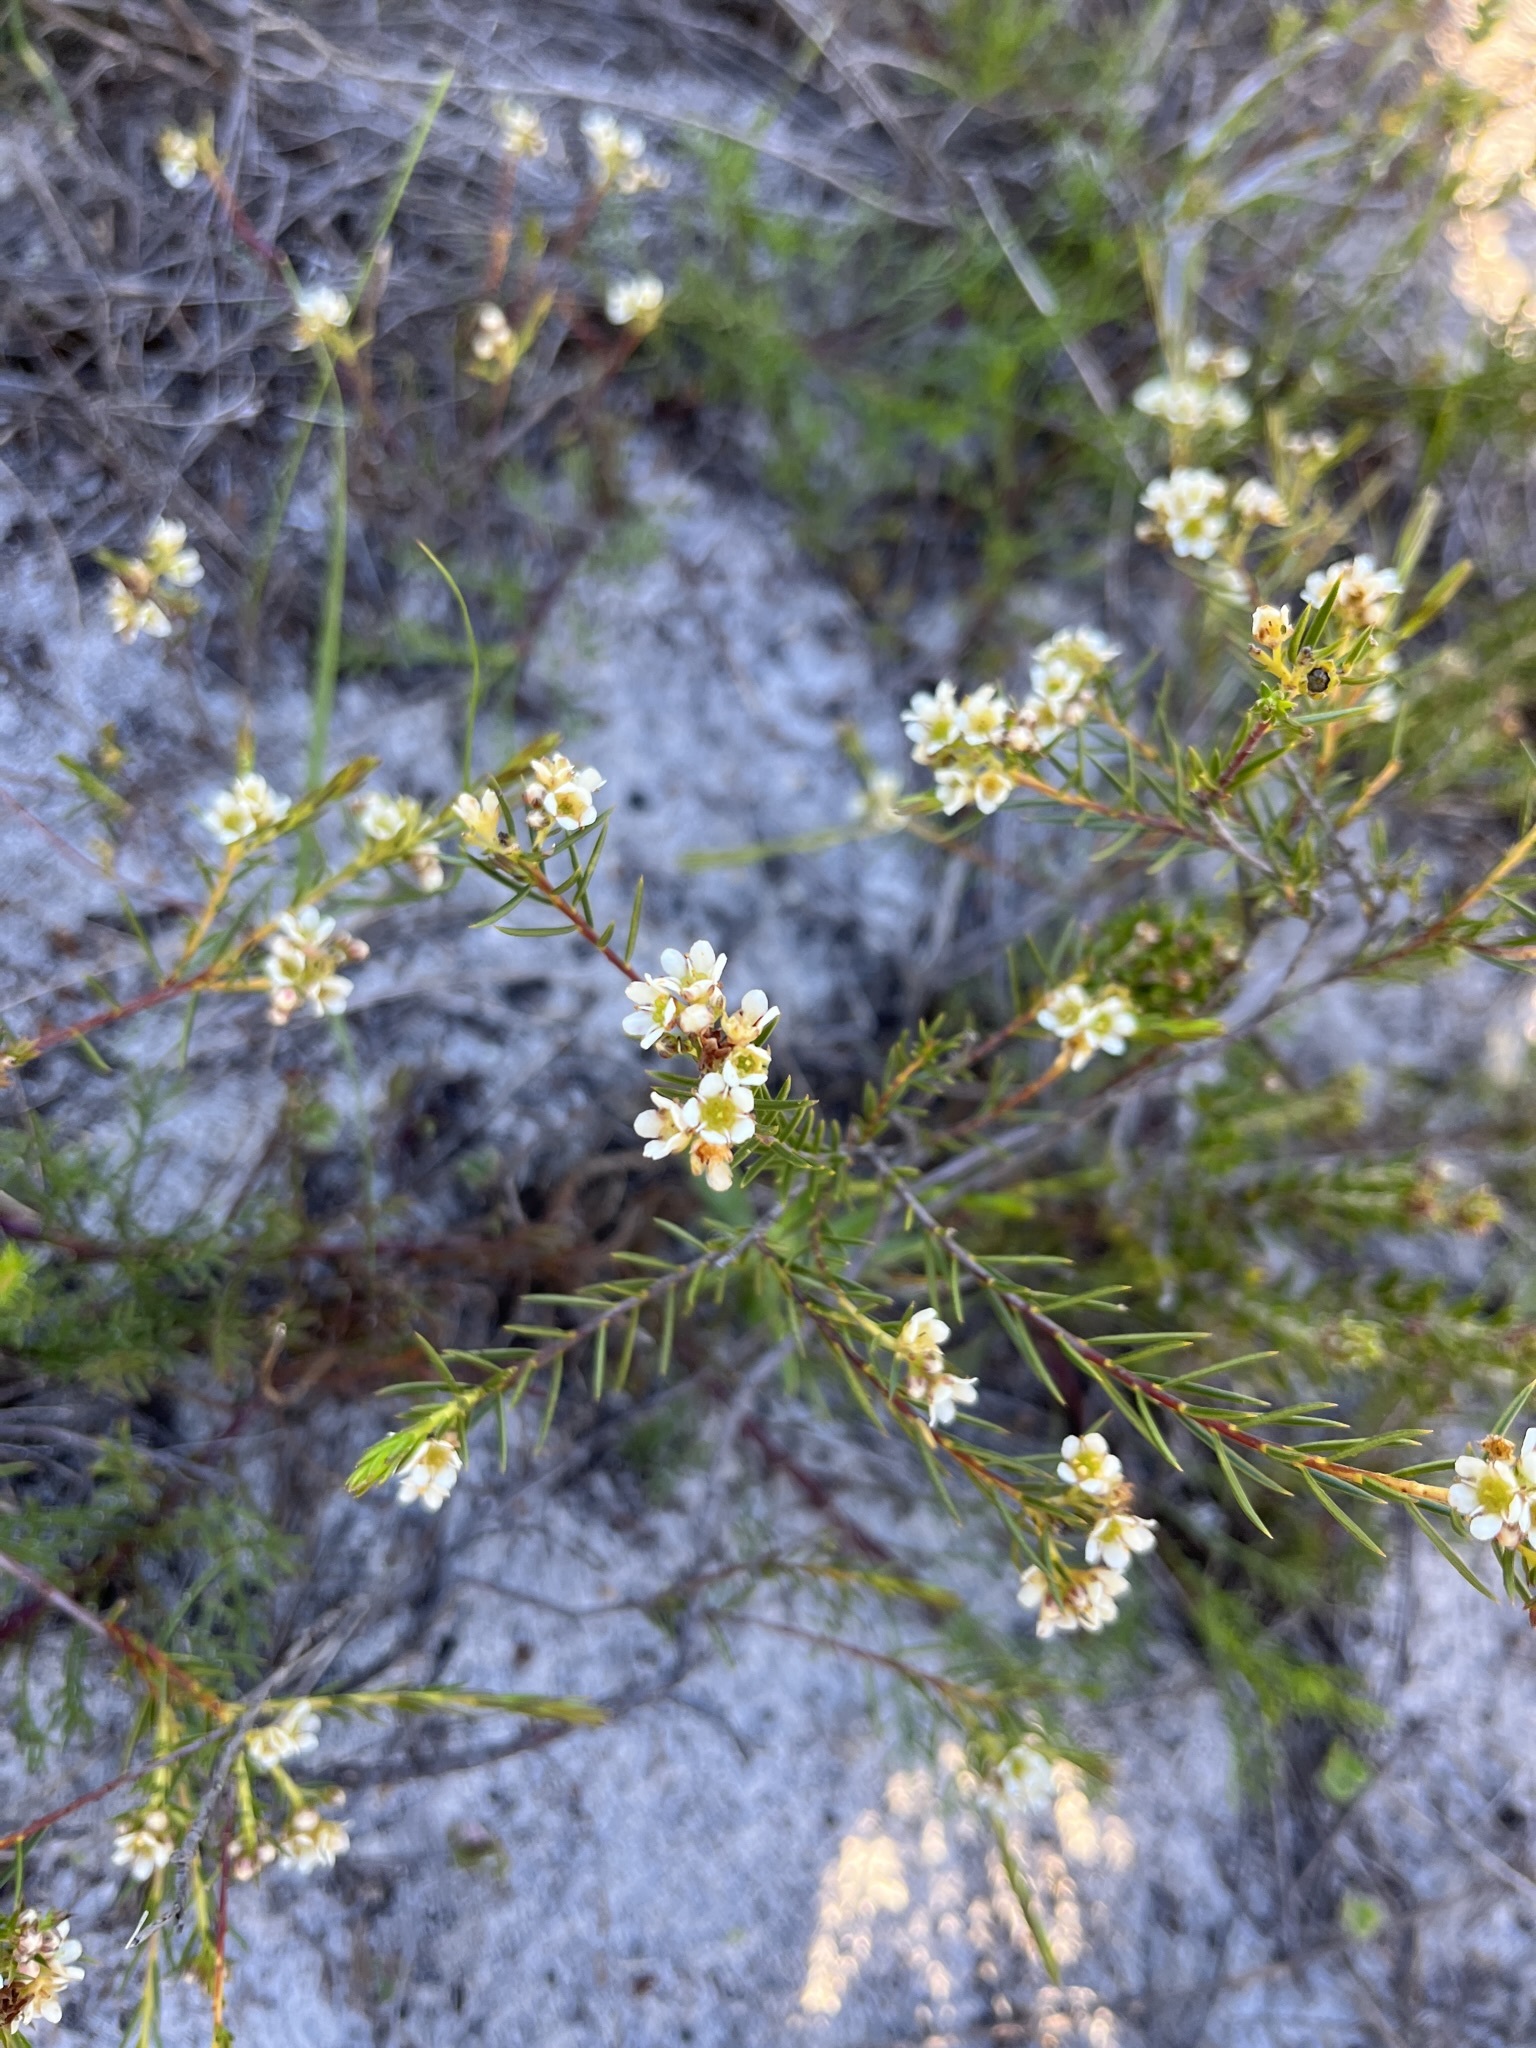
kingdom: Plantae
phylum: Tracheophyta
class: Magnoliopsida
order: Sapindales
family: Rutaceae
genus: Diosma
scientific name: Diosma hirsuta
